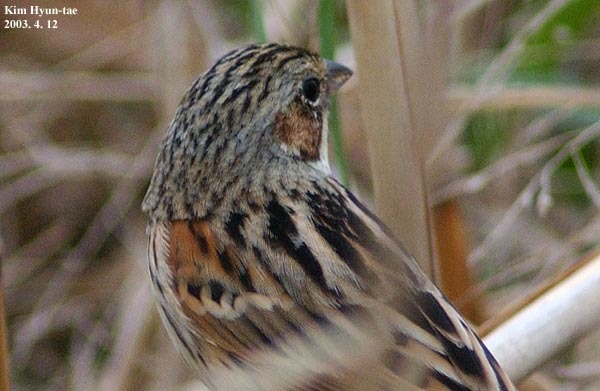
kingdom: Animalia
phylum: Chordata
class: Aves
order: Passeriformes
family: Emberizidae
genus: Emberiza
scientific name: Emberiza fucata
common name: Chestnut-eared bunting
